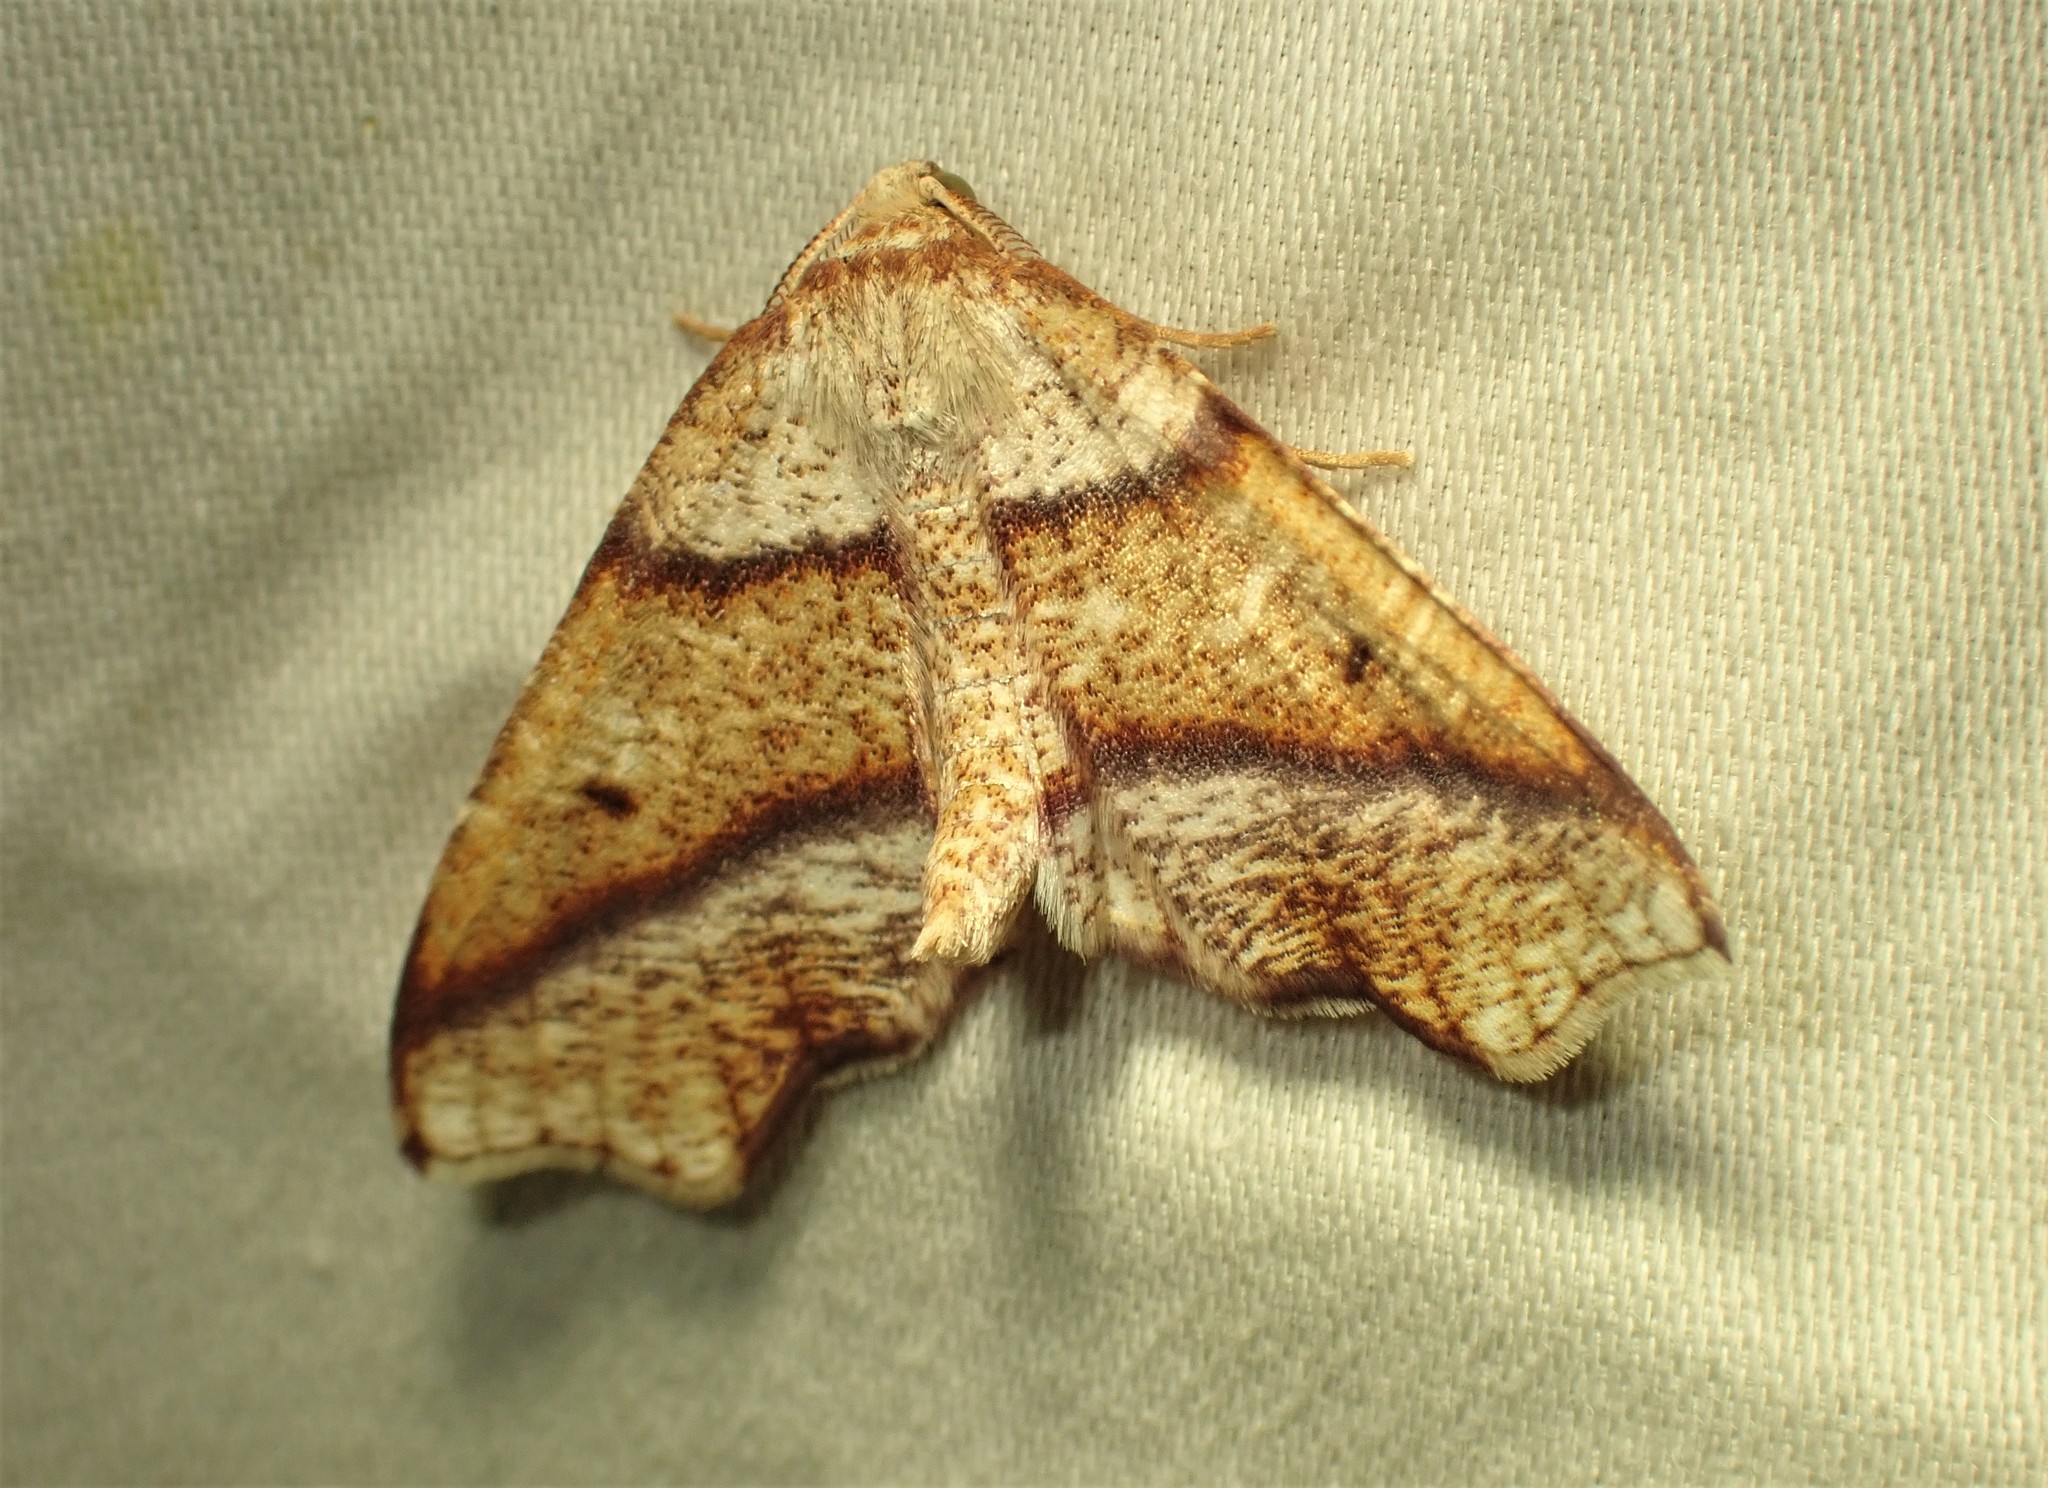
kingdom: Animalia
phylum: Arthropoda
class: Insecta
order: Lepidoptera
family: Geometridae
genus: Plagodis
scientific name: Plagodis alcoolaria
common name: Hollow-spotted plagodis
